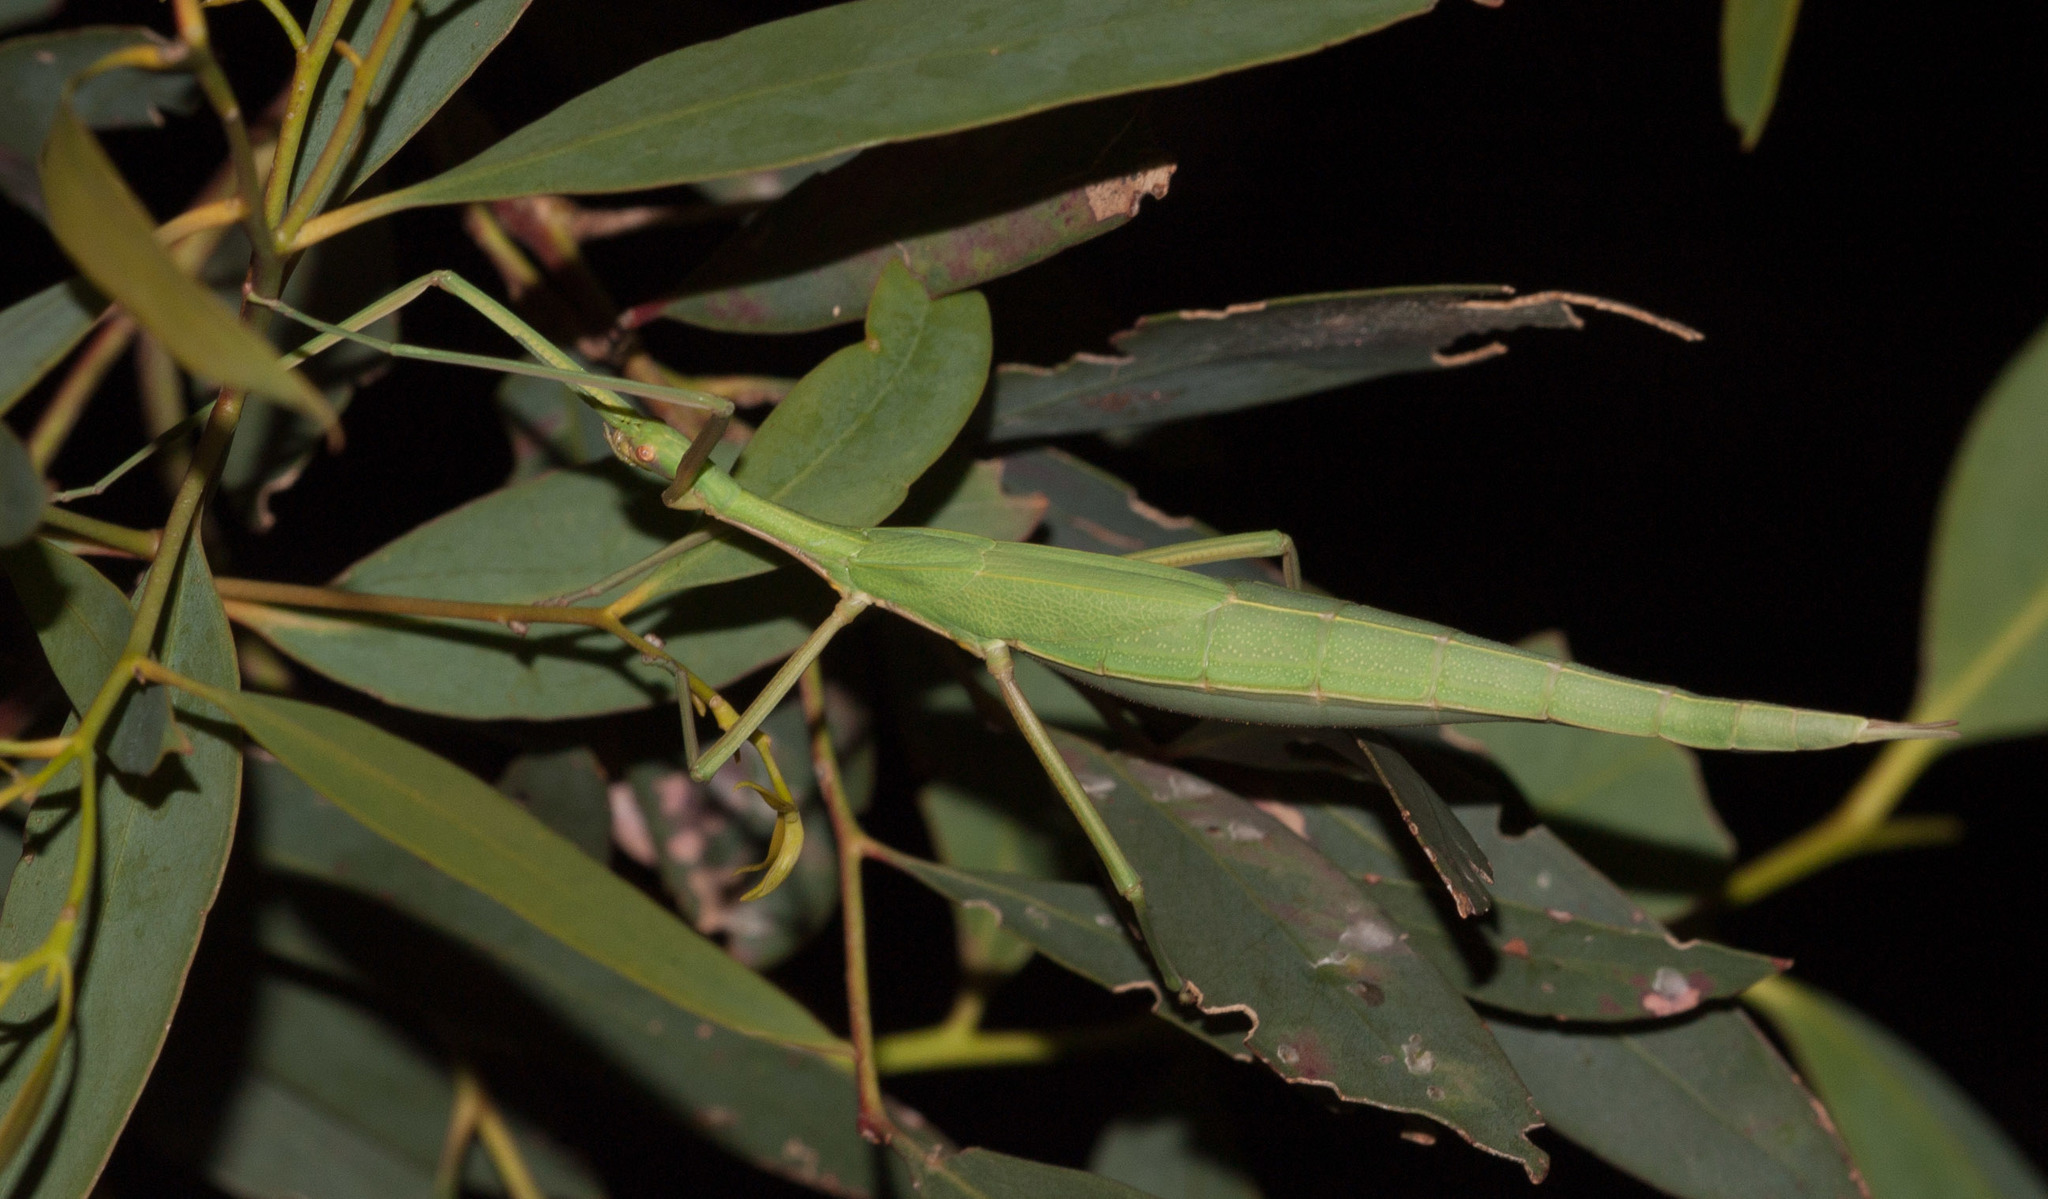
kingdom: Animalia
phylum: Arthropoda
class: Insecta
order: Phasmida
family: Phasmatidae
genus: Didymuria
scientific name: Didymuria violescens
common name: Spur-legged stick-insect
